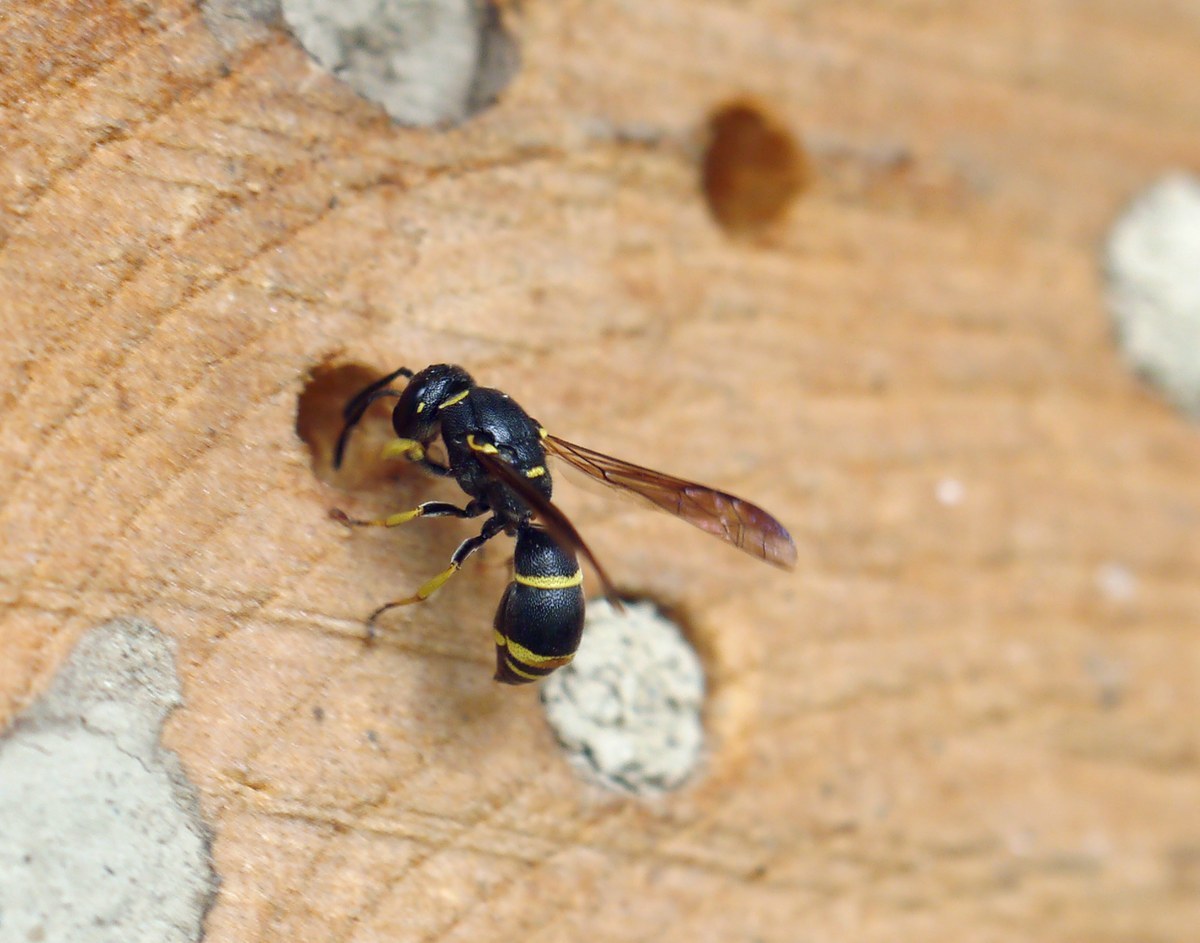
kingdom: Animalia
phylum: Arthropoda
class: Insecta
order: Hymenoptera
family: Eumenidae
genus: Allodynerus
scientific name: Allodynerus rossii
